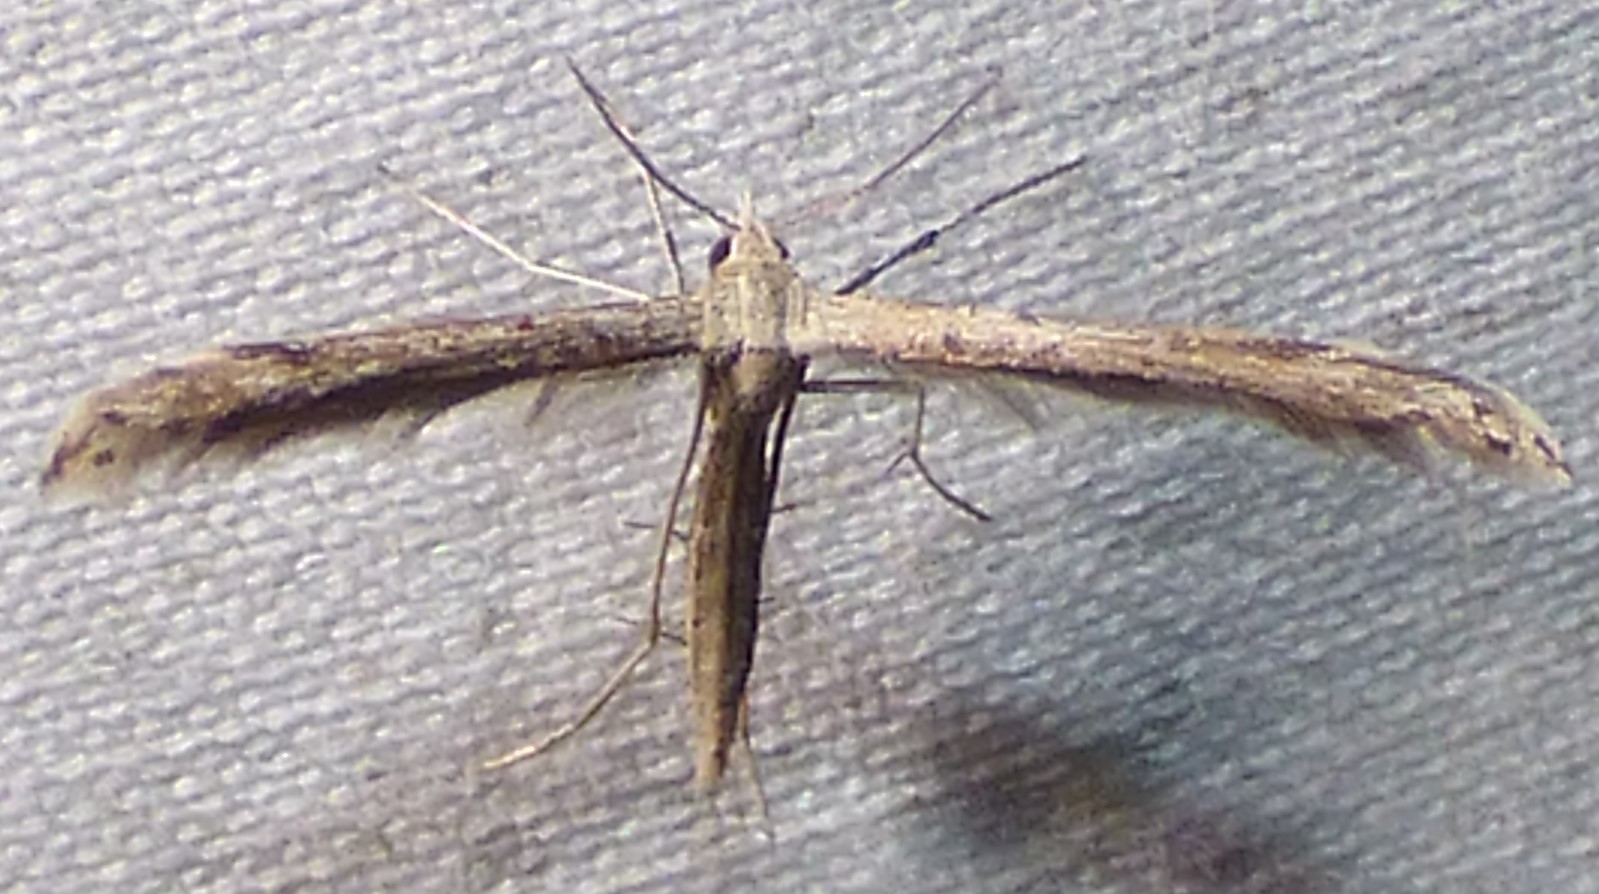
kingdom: Animalia
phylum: Arthropoda
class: Insecta
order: Lepidoptera
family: Pterophoridae
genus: Lioptilodes
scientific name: Lioptilodes albistriolatus
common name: Moth
